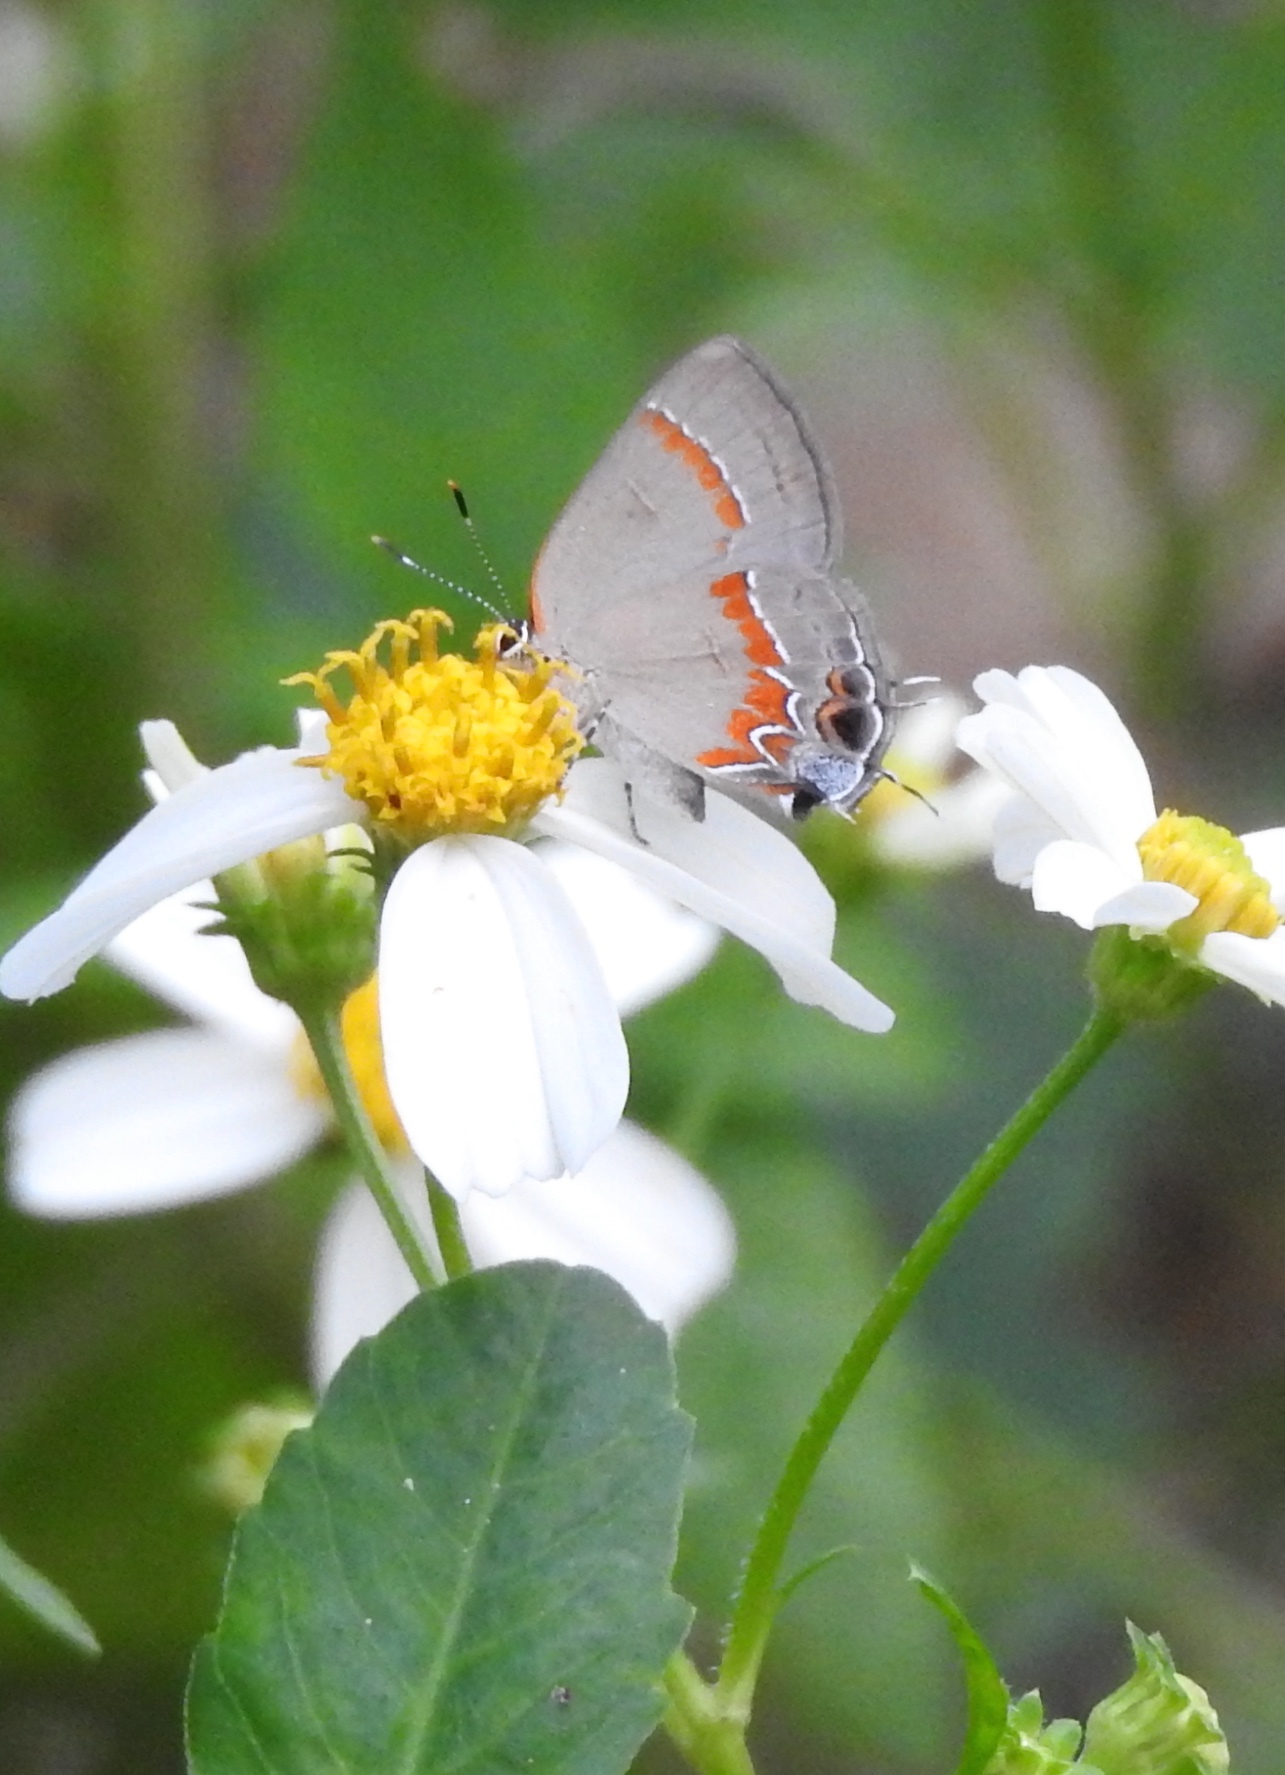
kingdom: Animalia
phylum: Arthropoda
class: Insecta
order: Lepidoptera
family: Lycaenidae
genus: Calycopis
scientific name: Calycopis cecrops
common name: Red-banded hairstreak
